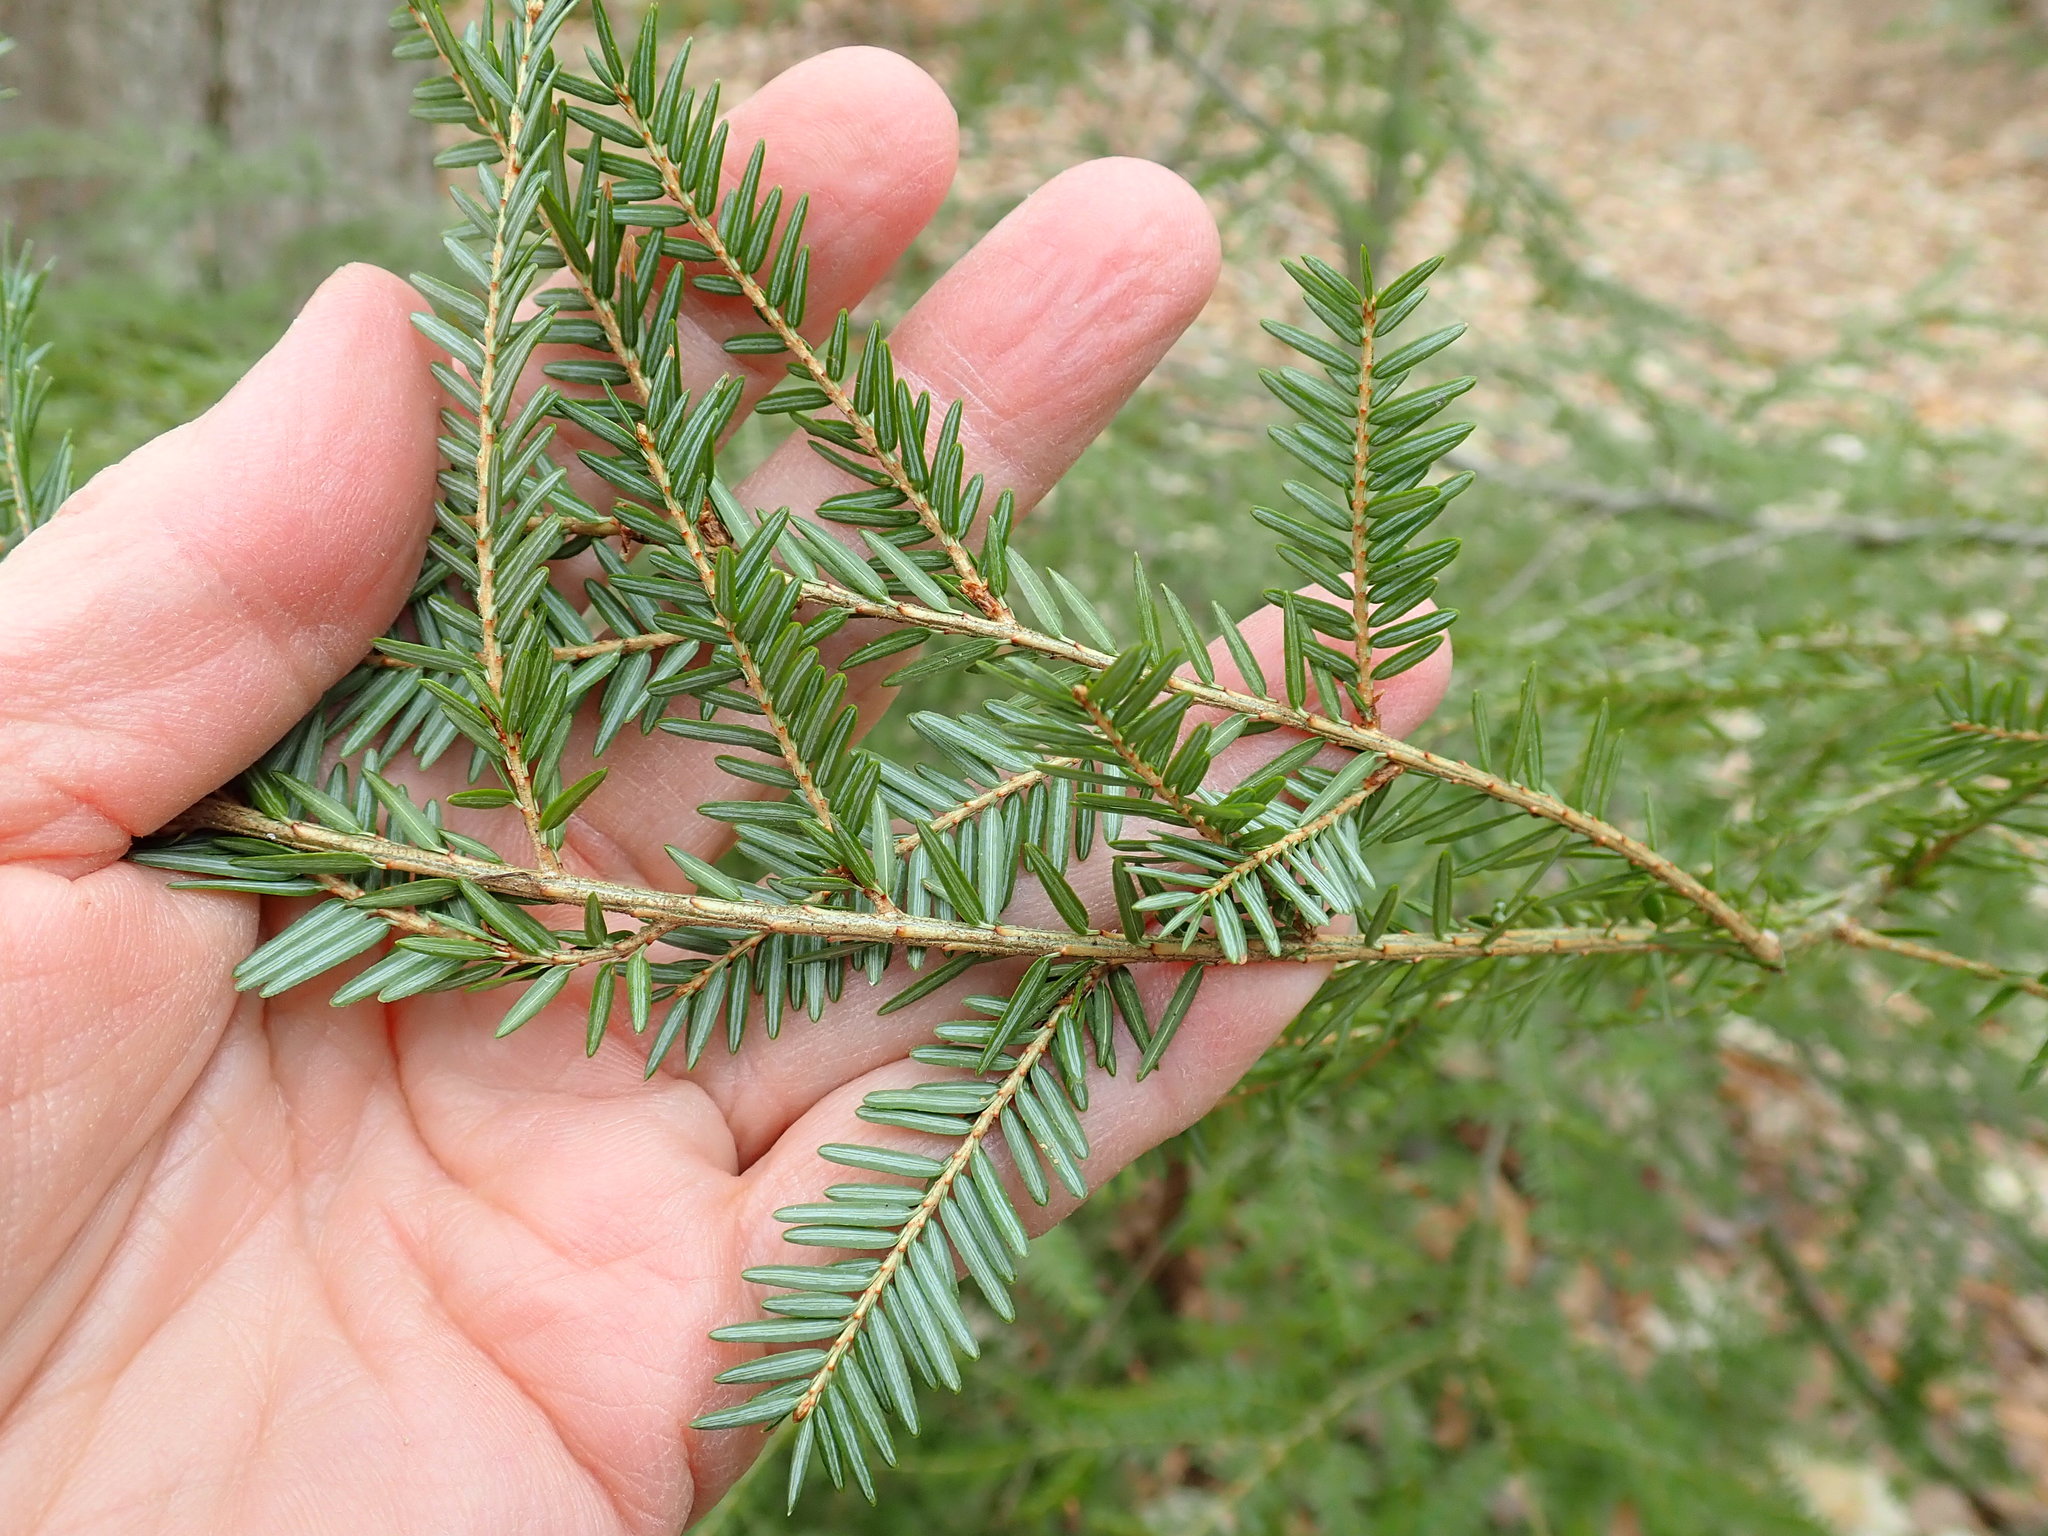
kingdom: Plantae
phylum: Tracheophyta
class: Pinopsida
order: Pinales
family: Pinaceae
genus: Tsuga
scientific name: Tsuga canadensis
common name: Eastern hemlock
